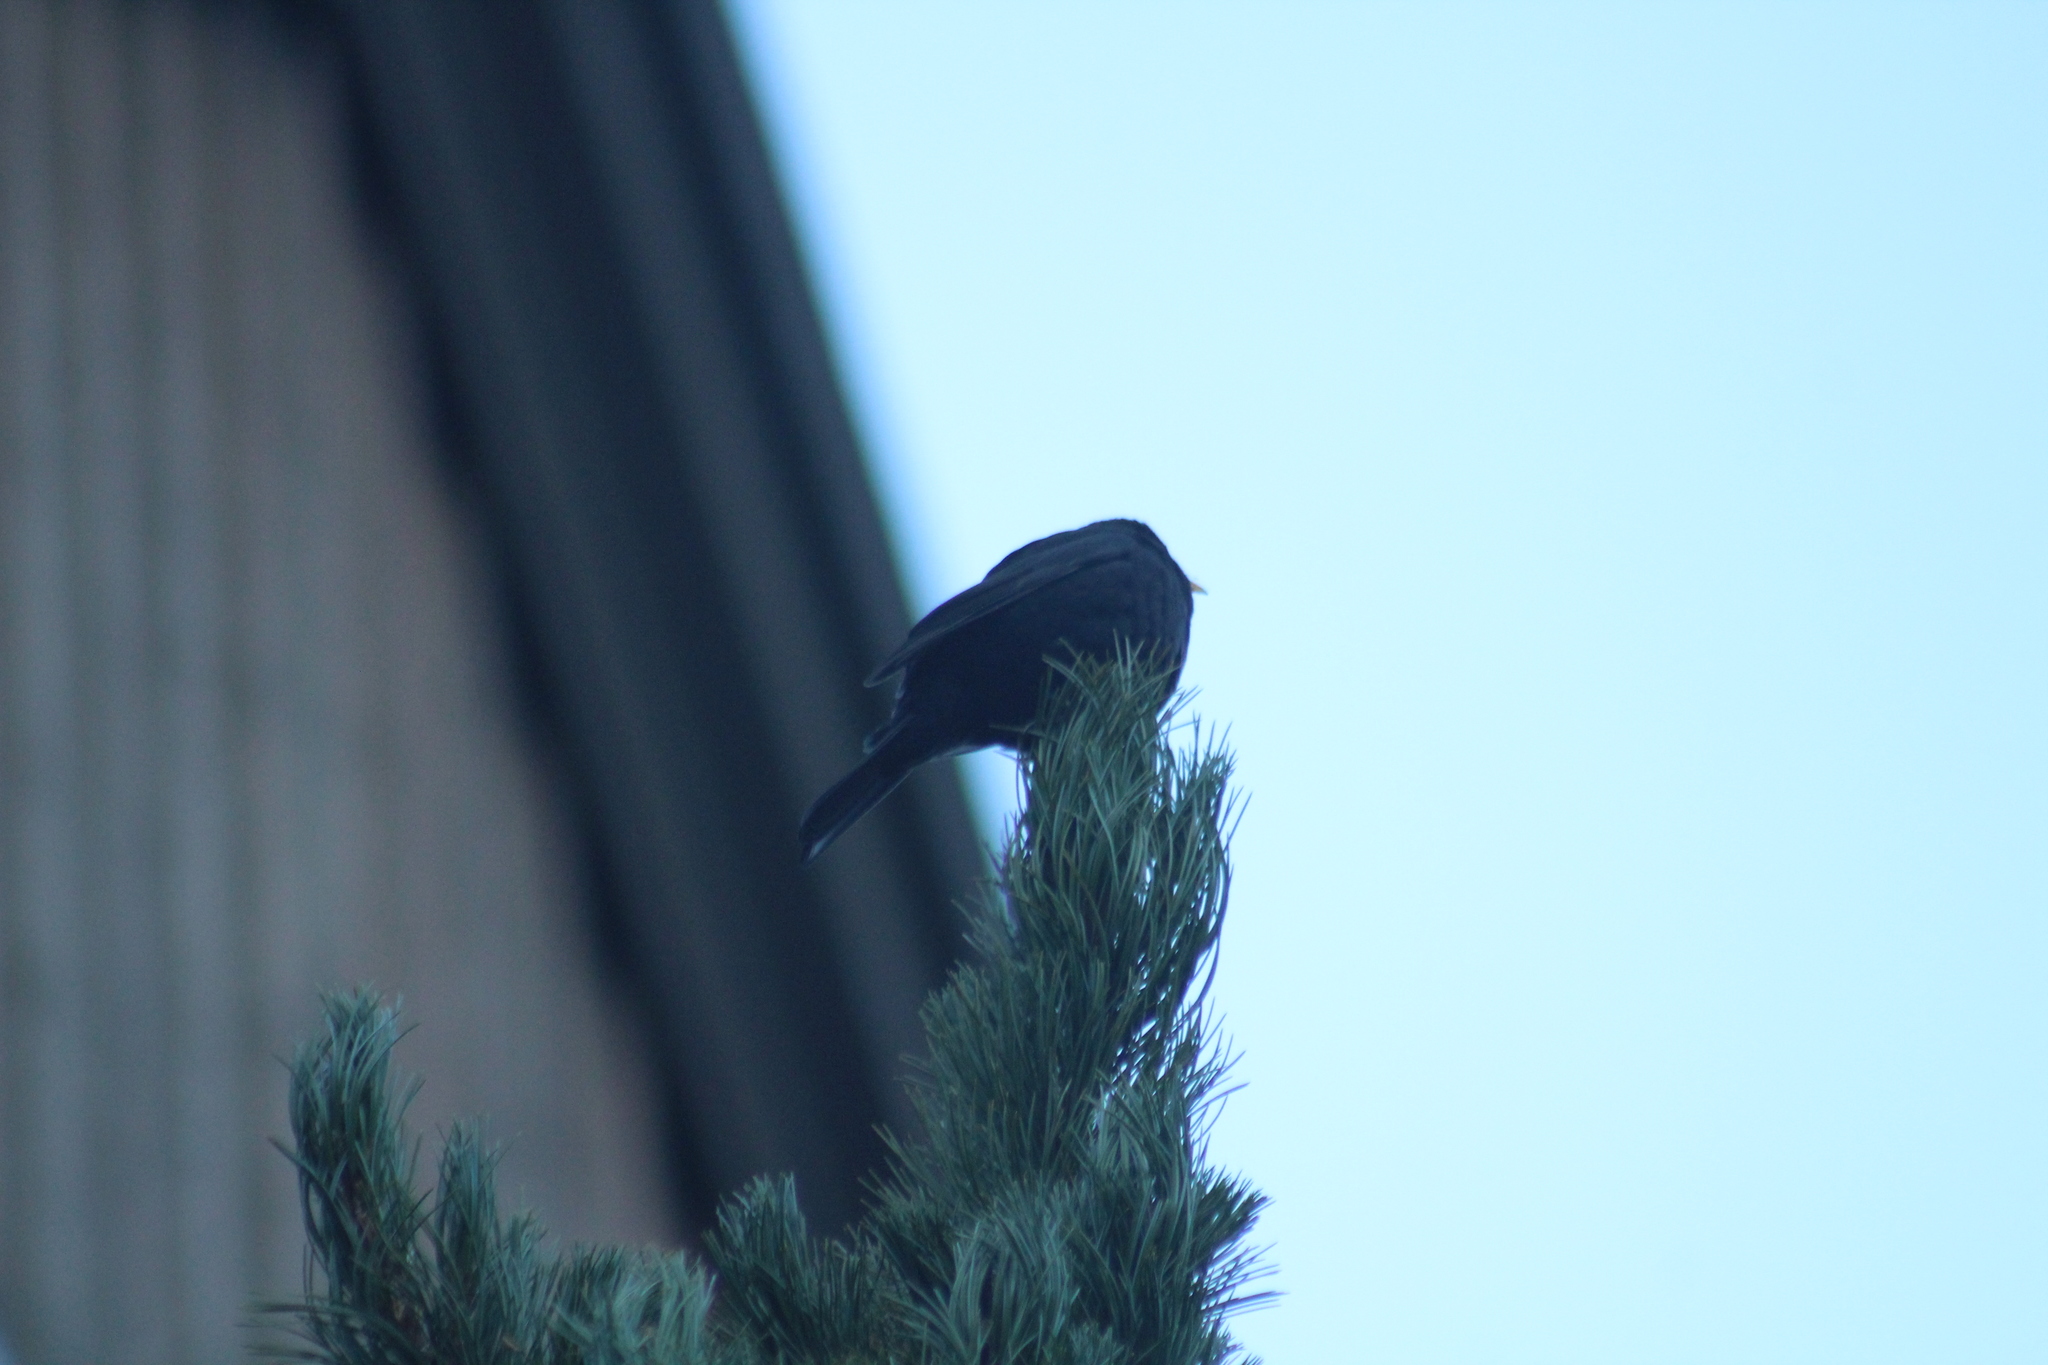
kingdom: Animalia
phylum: Chordata
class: Aves
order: Passeriformes
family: Turdidae
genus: Turdus
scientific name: Turdus merula
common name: Common blackbird
